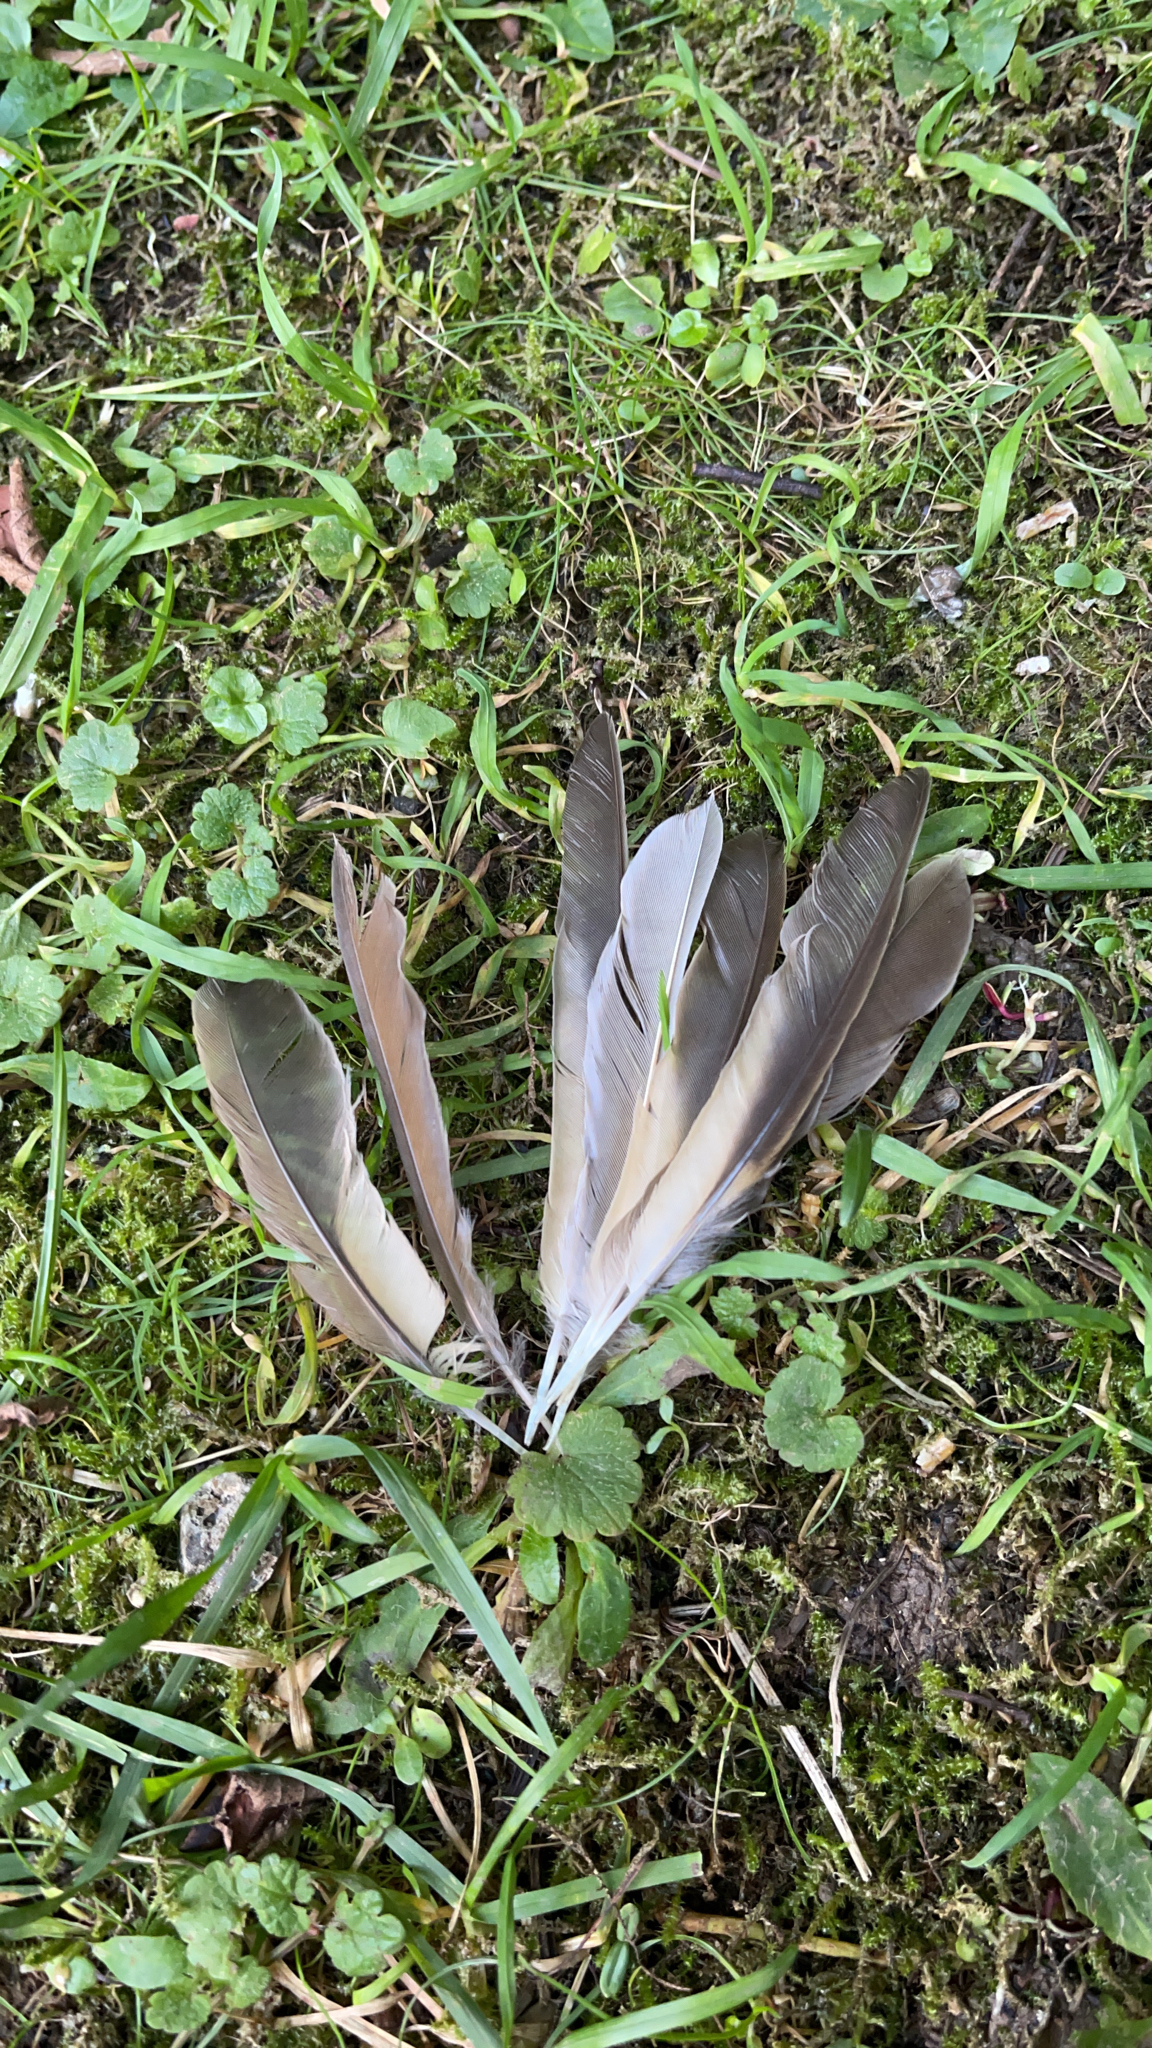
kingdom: Animalia
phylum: Chordata
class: Aves
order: Passeriformes
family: Turdidae
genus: Turdus
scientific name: Turdus philomelos
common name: Song thrush
